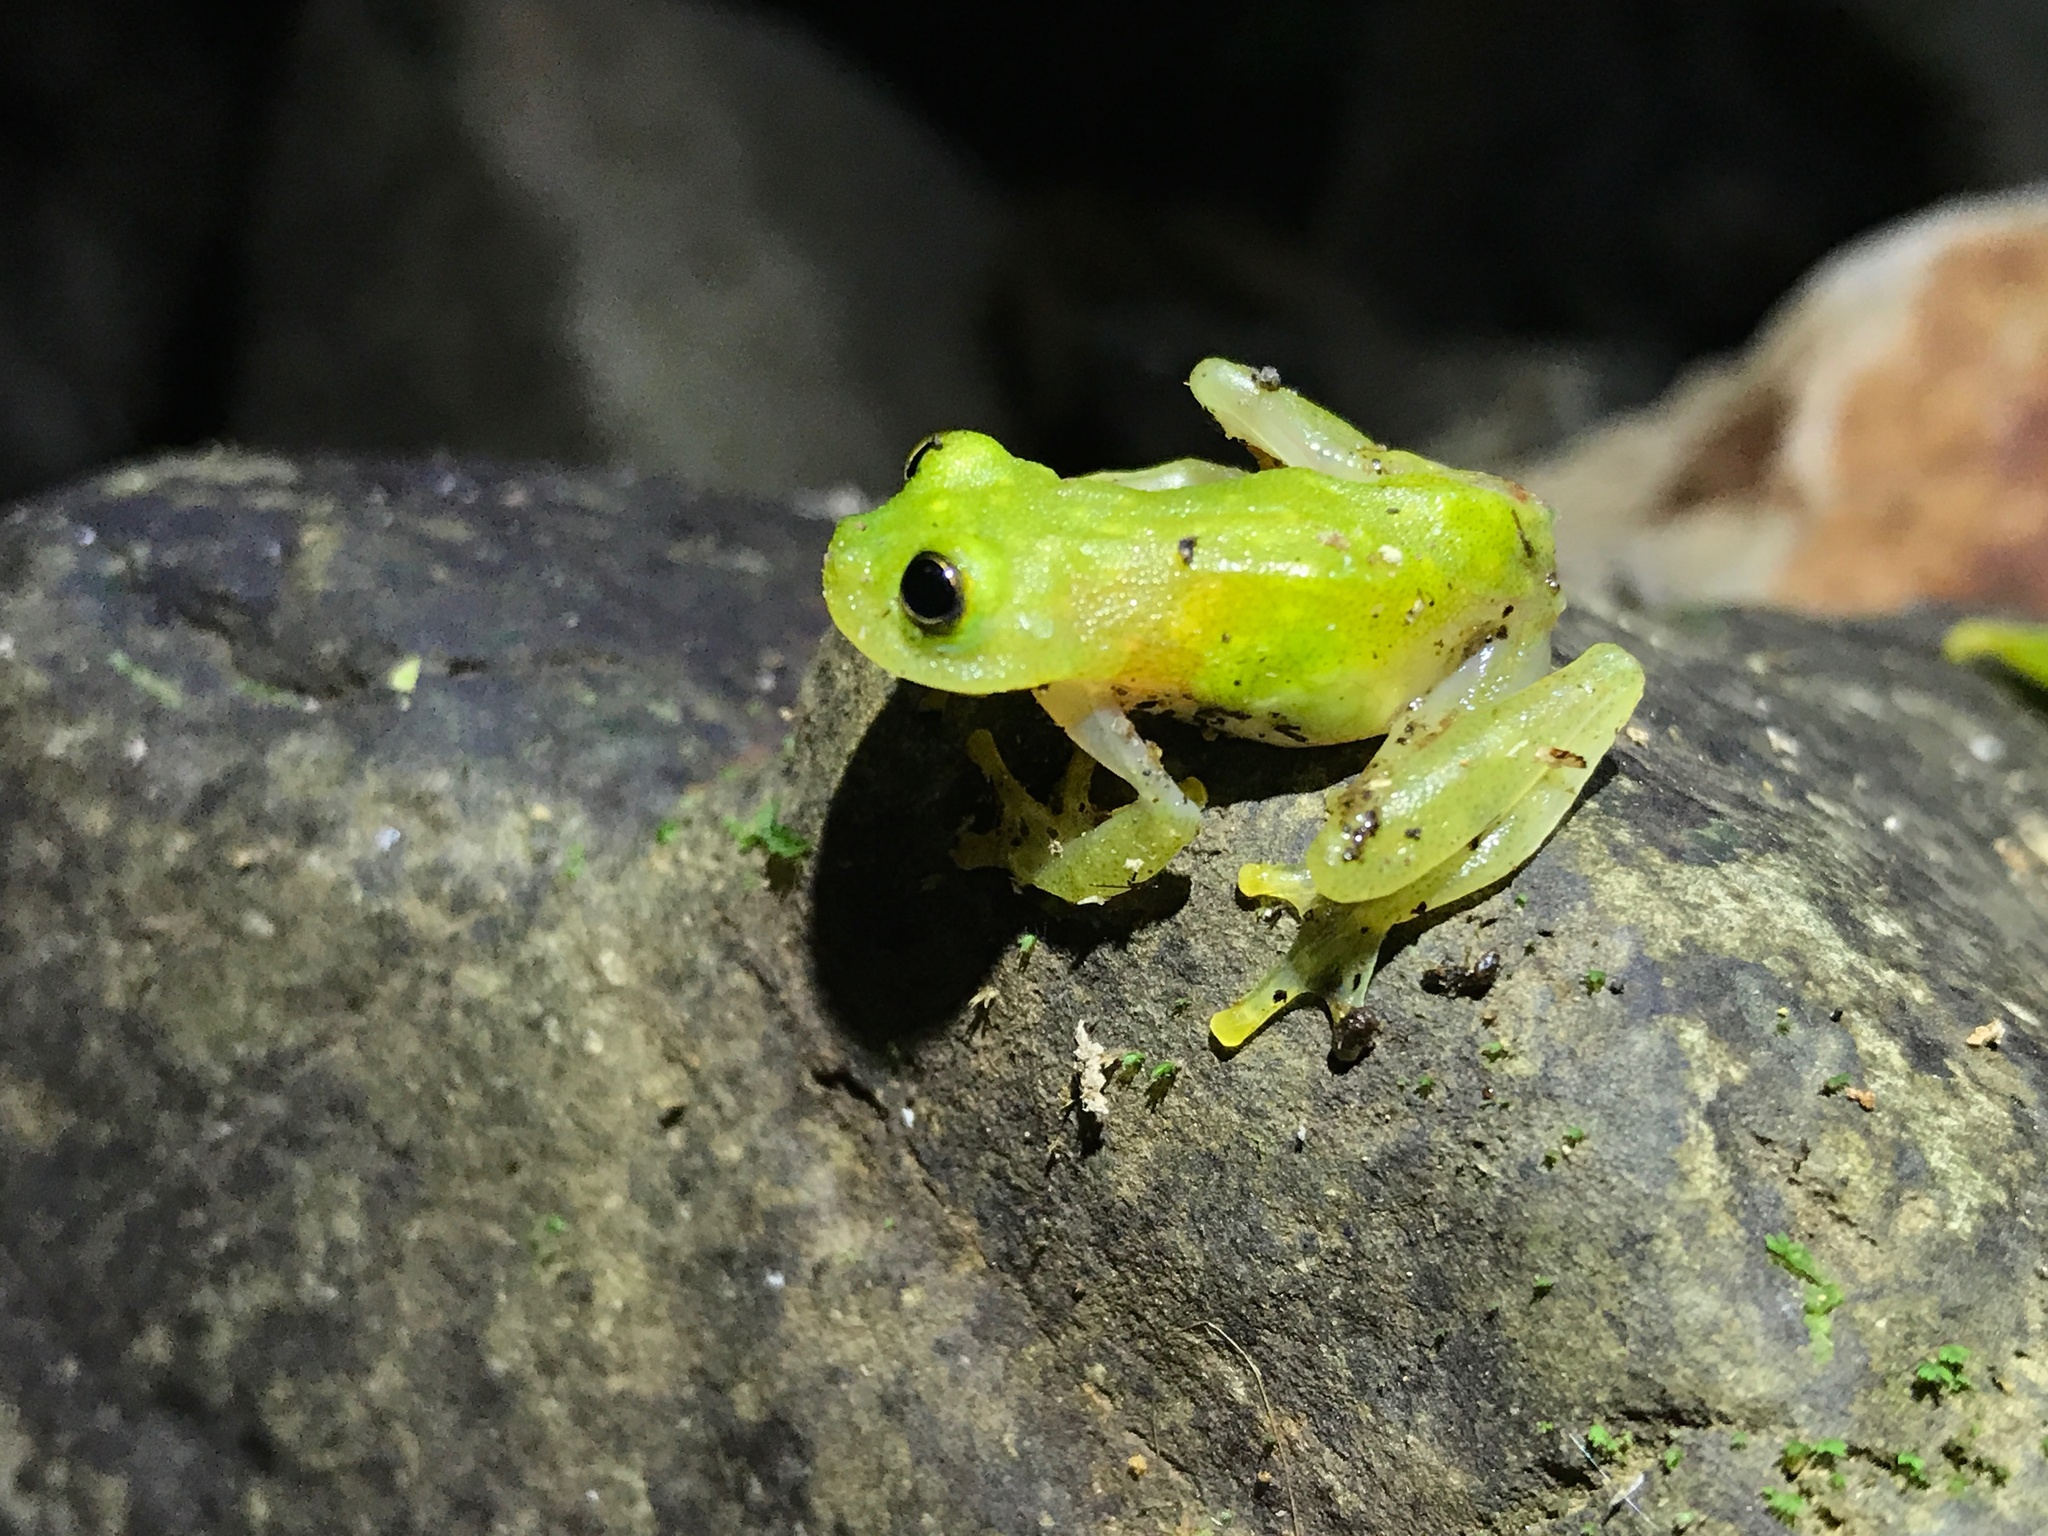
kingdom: Animalia
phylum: Chordata
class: Amphibia
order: Anura
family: Centrolenidae
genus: Hyalinobatrachium
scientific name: Hyalinobatrachium tatayoi
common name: Tatayo’s glass frog
